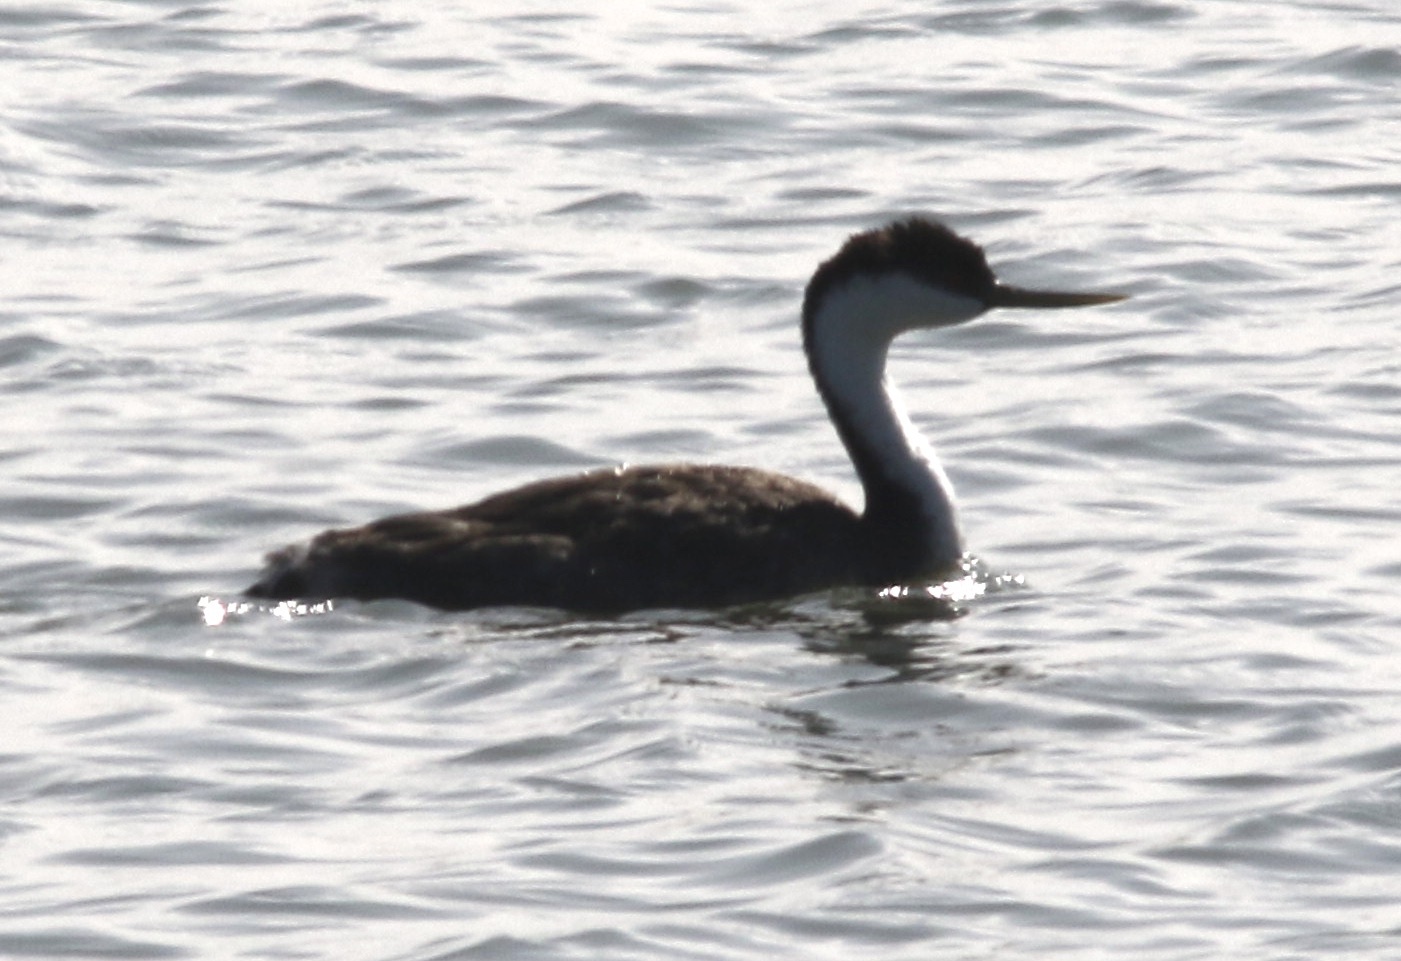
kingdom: Animalia
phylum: Chordata
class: Aves
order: Podicipediformes
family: Podicipedidae
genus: Aechmophorus
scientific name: Aechmophorus occidentalis
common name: Western grebe
